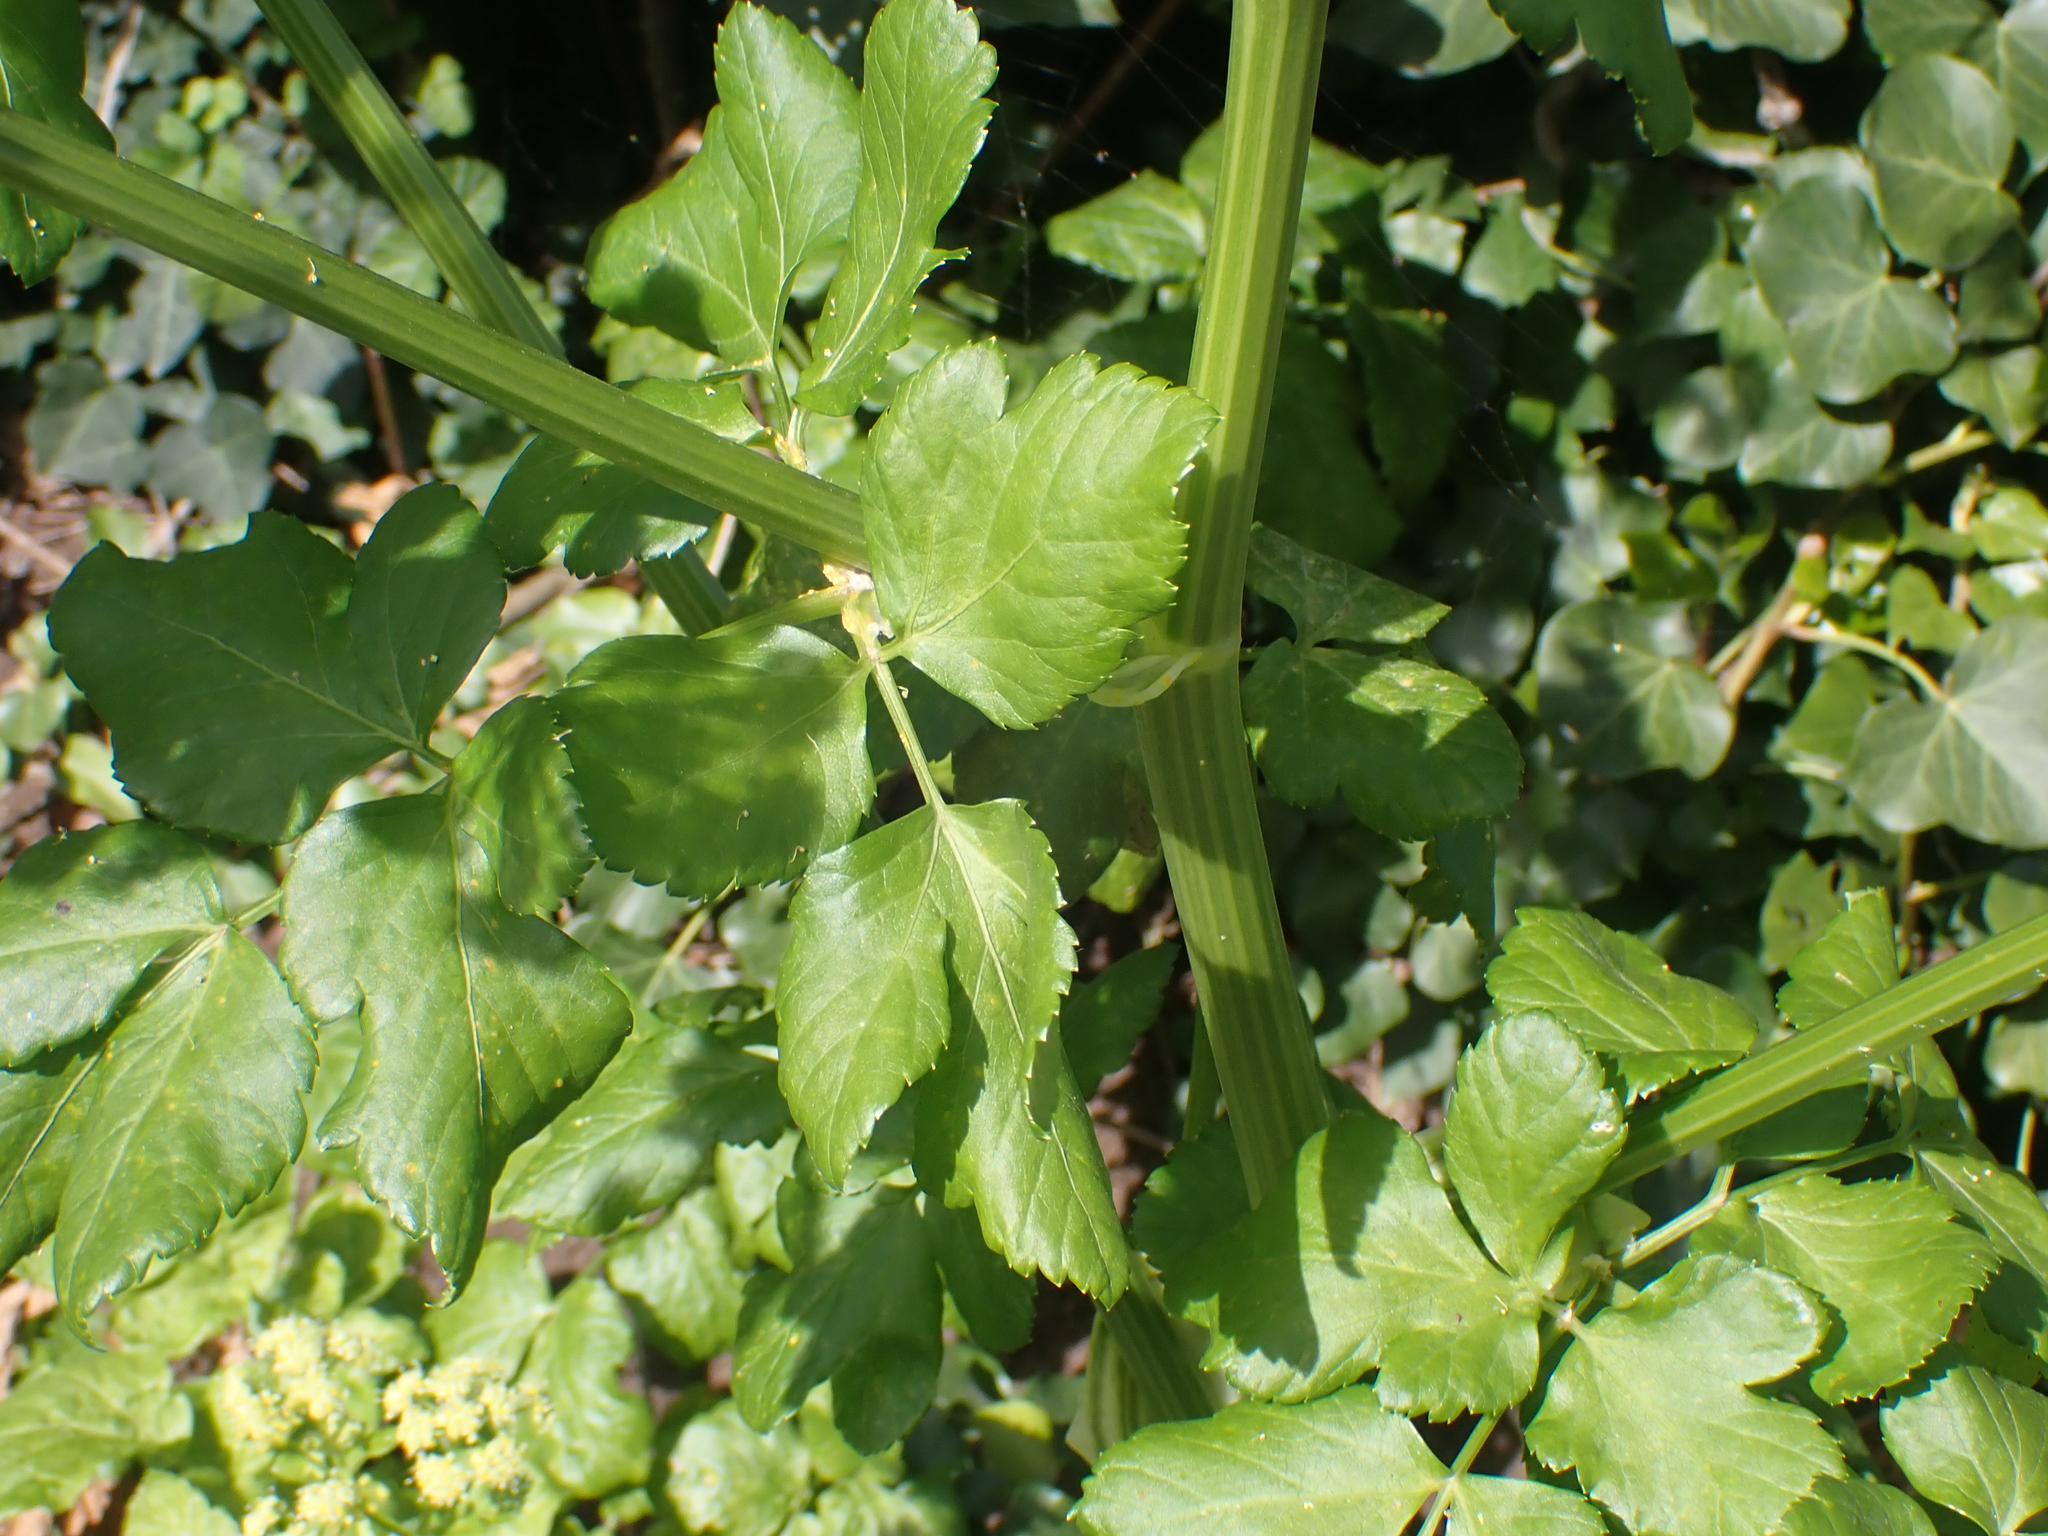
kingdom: Plantae
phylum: Tracheophyta
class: Magnoliopsida
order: Apiales
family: Apiaceae
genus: Smyrnium
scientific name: Smyrnium olusatrum
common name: Alexanders
